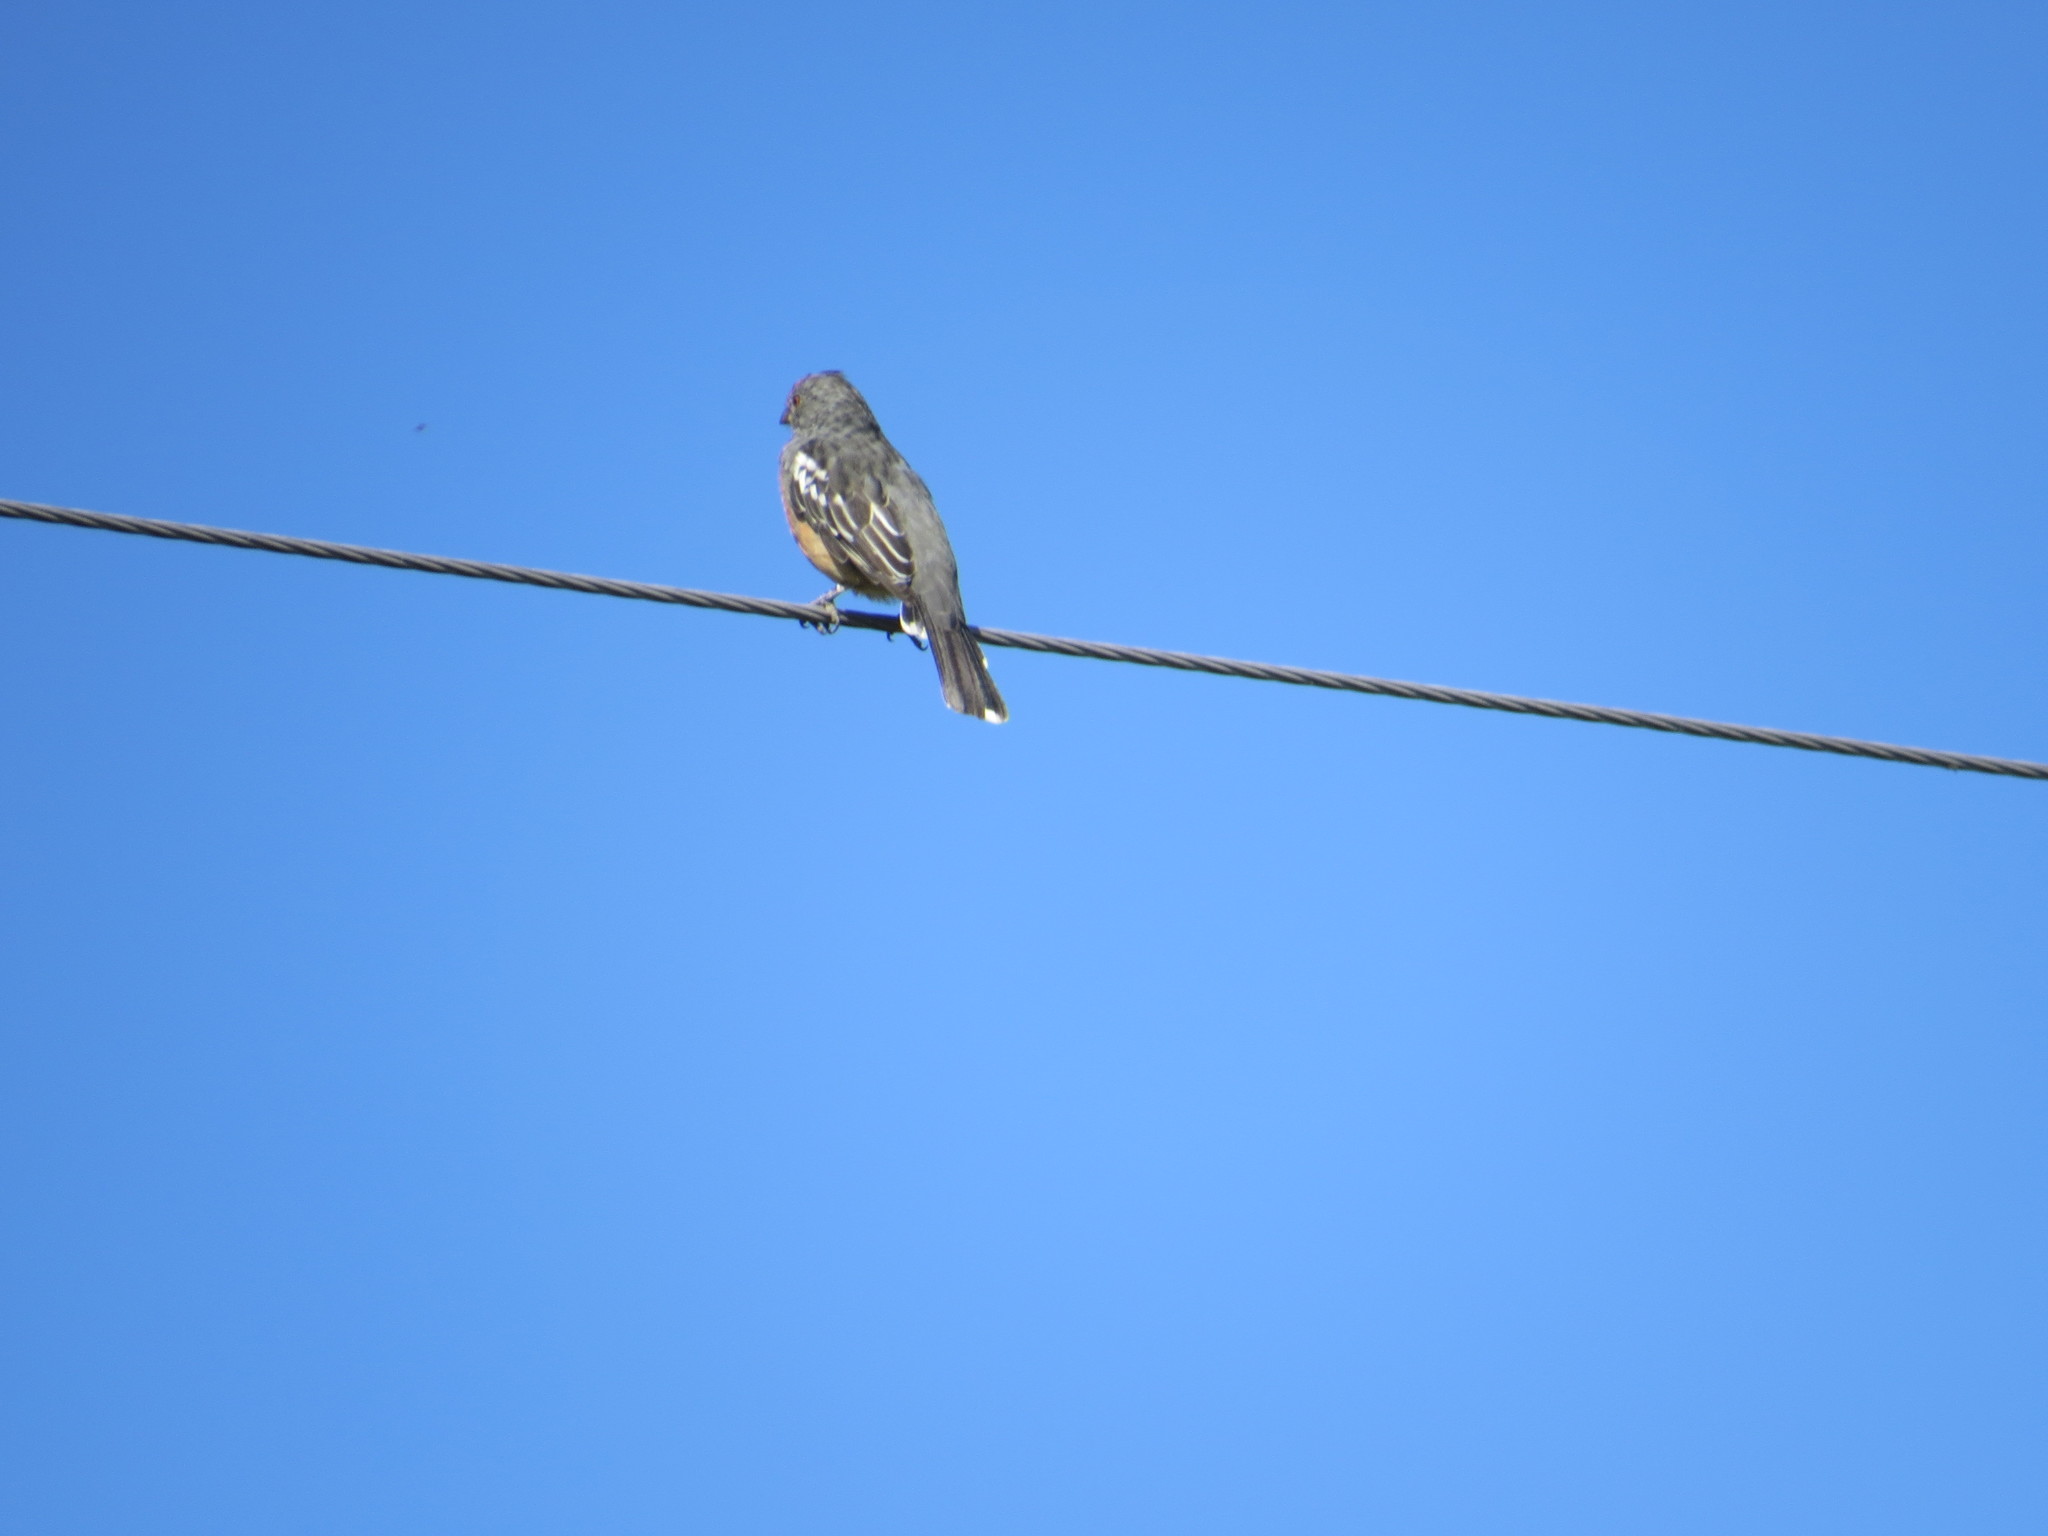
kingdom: Animalia
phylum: Chordata
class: Aves
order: Passeriformes
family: Cotingidae
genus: Phytotoma
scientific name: Phytotoma rutila
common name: White-tipped plantcutter
